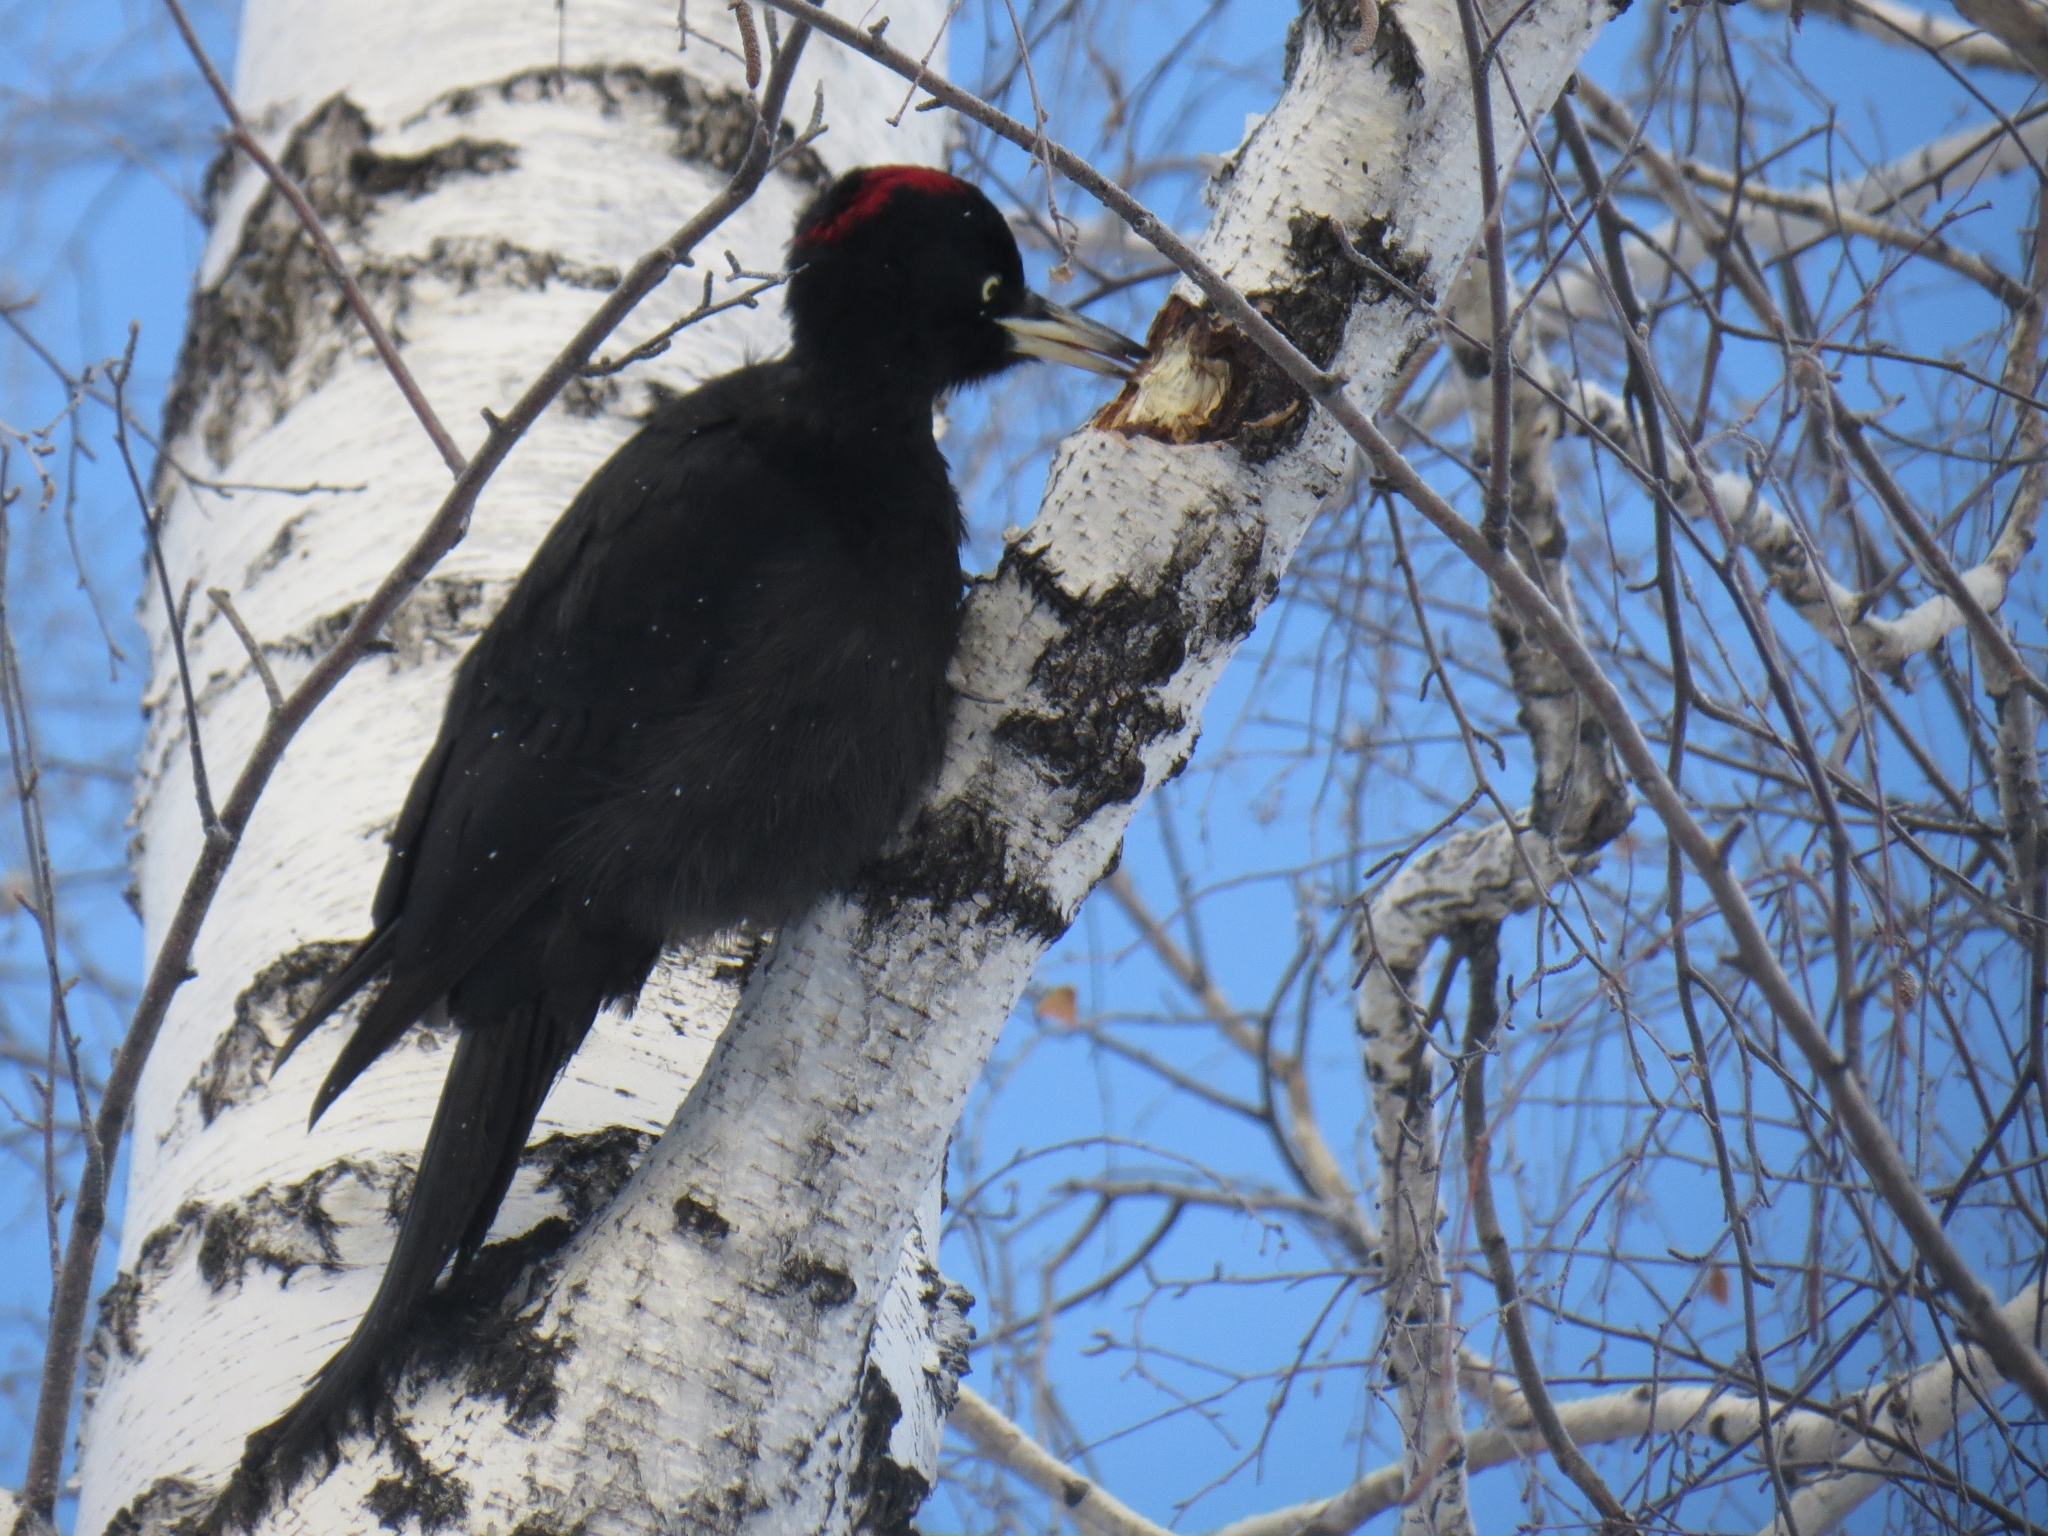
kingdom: Animalia
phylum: Chordata
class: Aves
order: Piciformes
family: Picidae
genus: Dryocopus
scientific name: Dryocopus martius
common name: Black woodpecker
